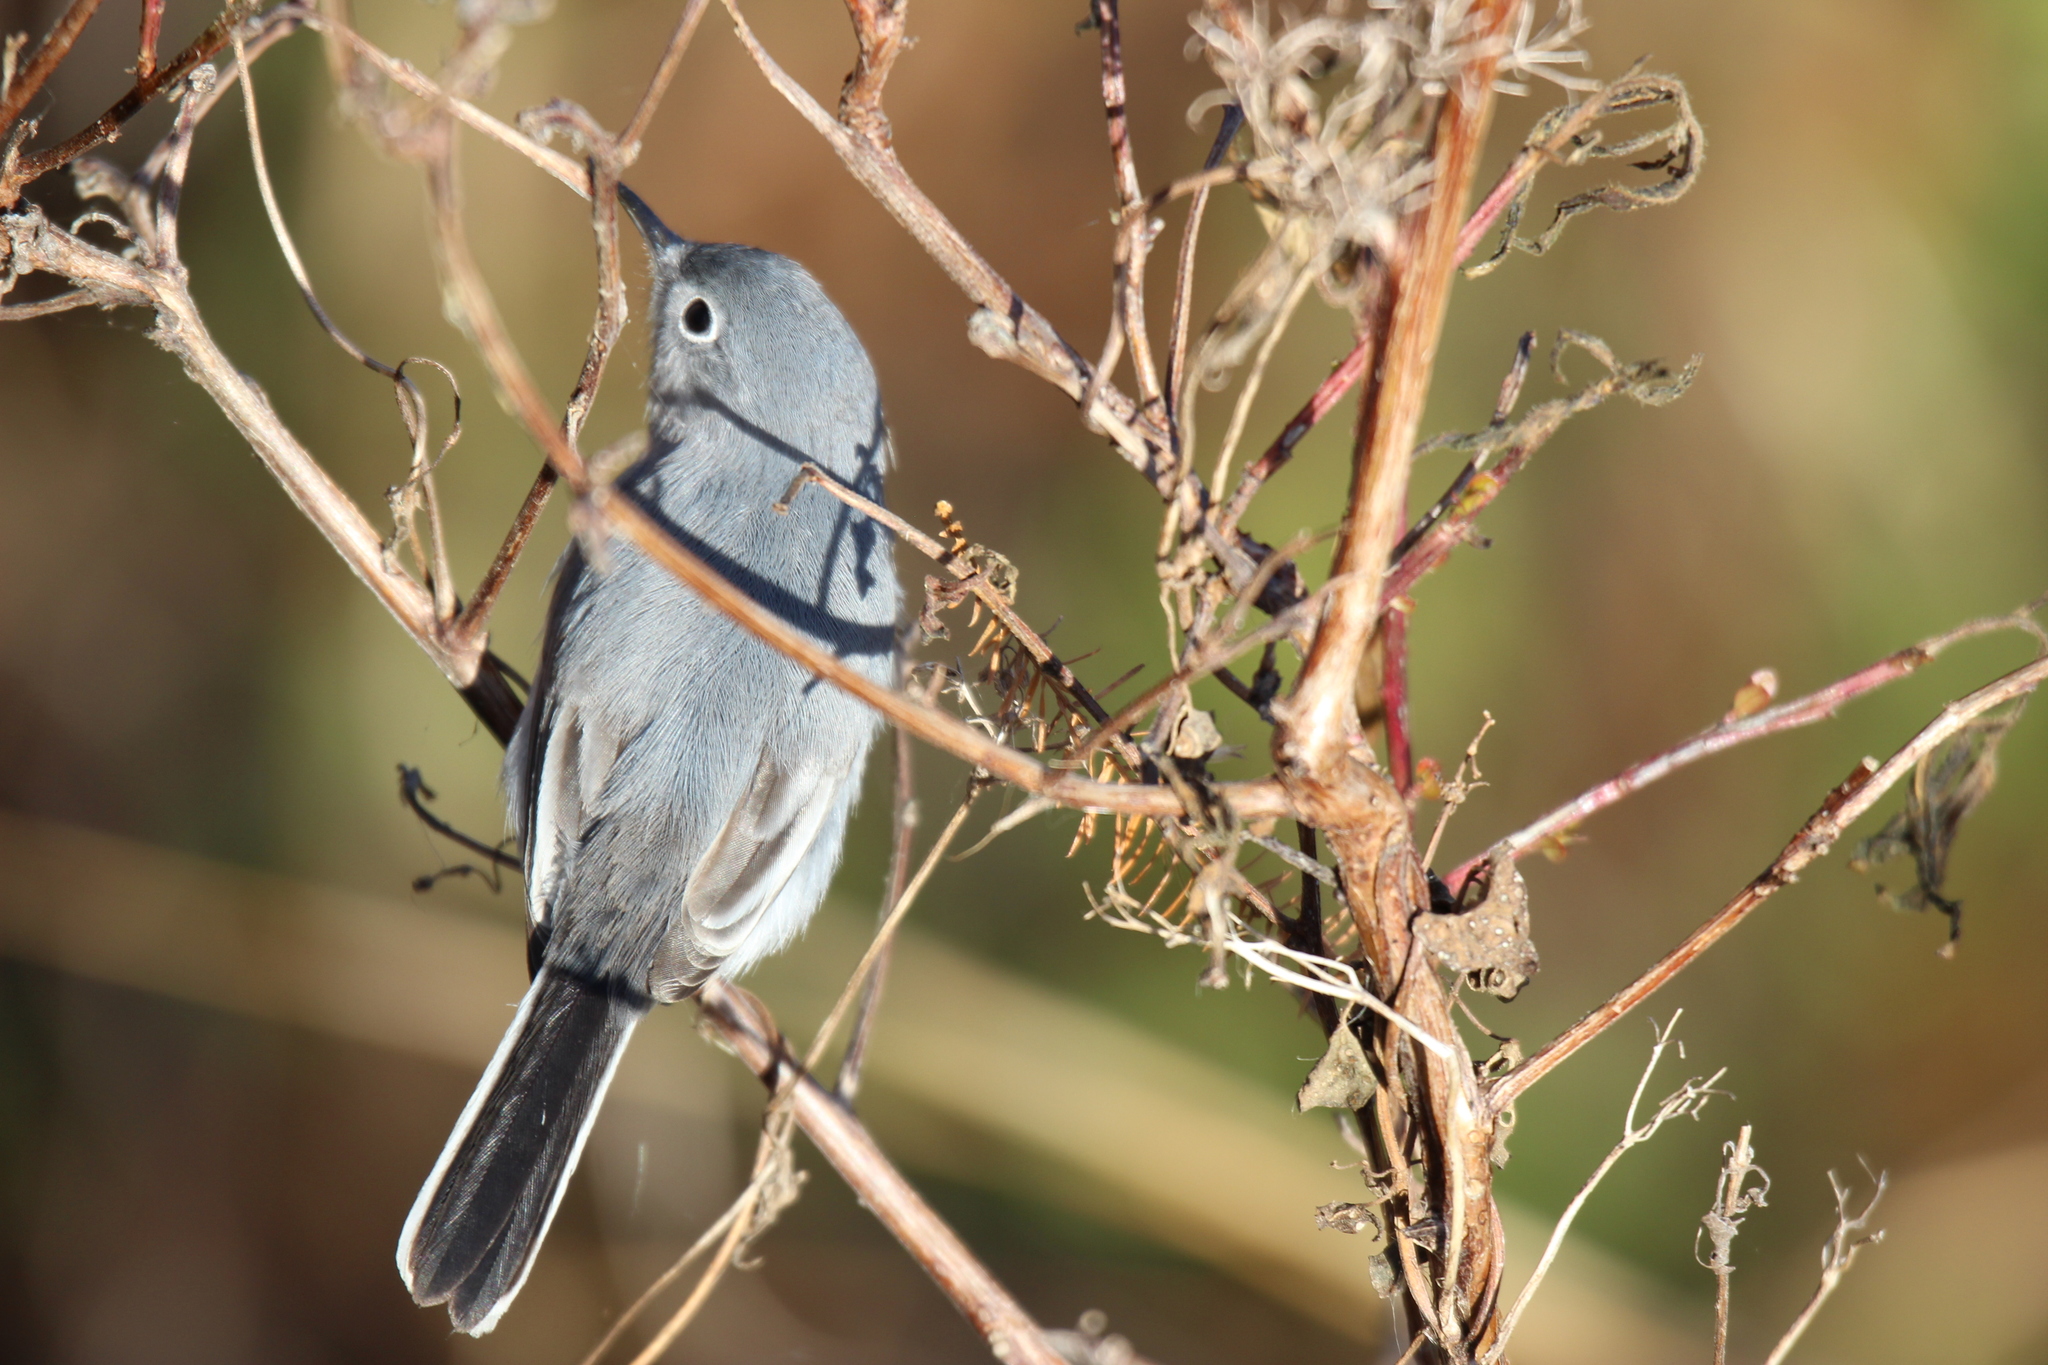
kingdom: Animalia
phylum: Chordata
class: Aves
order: Passeriformes
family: Polioptilidae
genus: Polioptila
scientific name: Polioptila caerulea
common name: Blue-gray gnatcatcher
